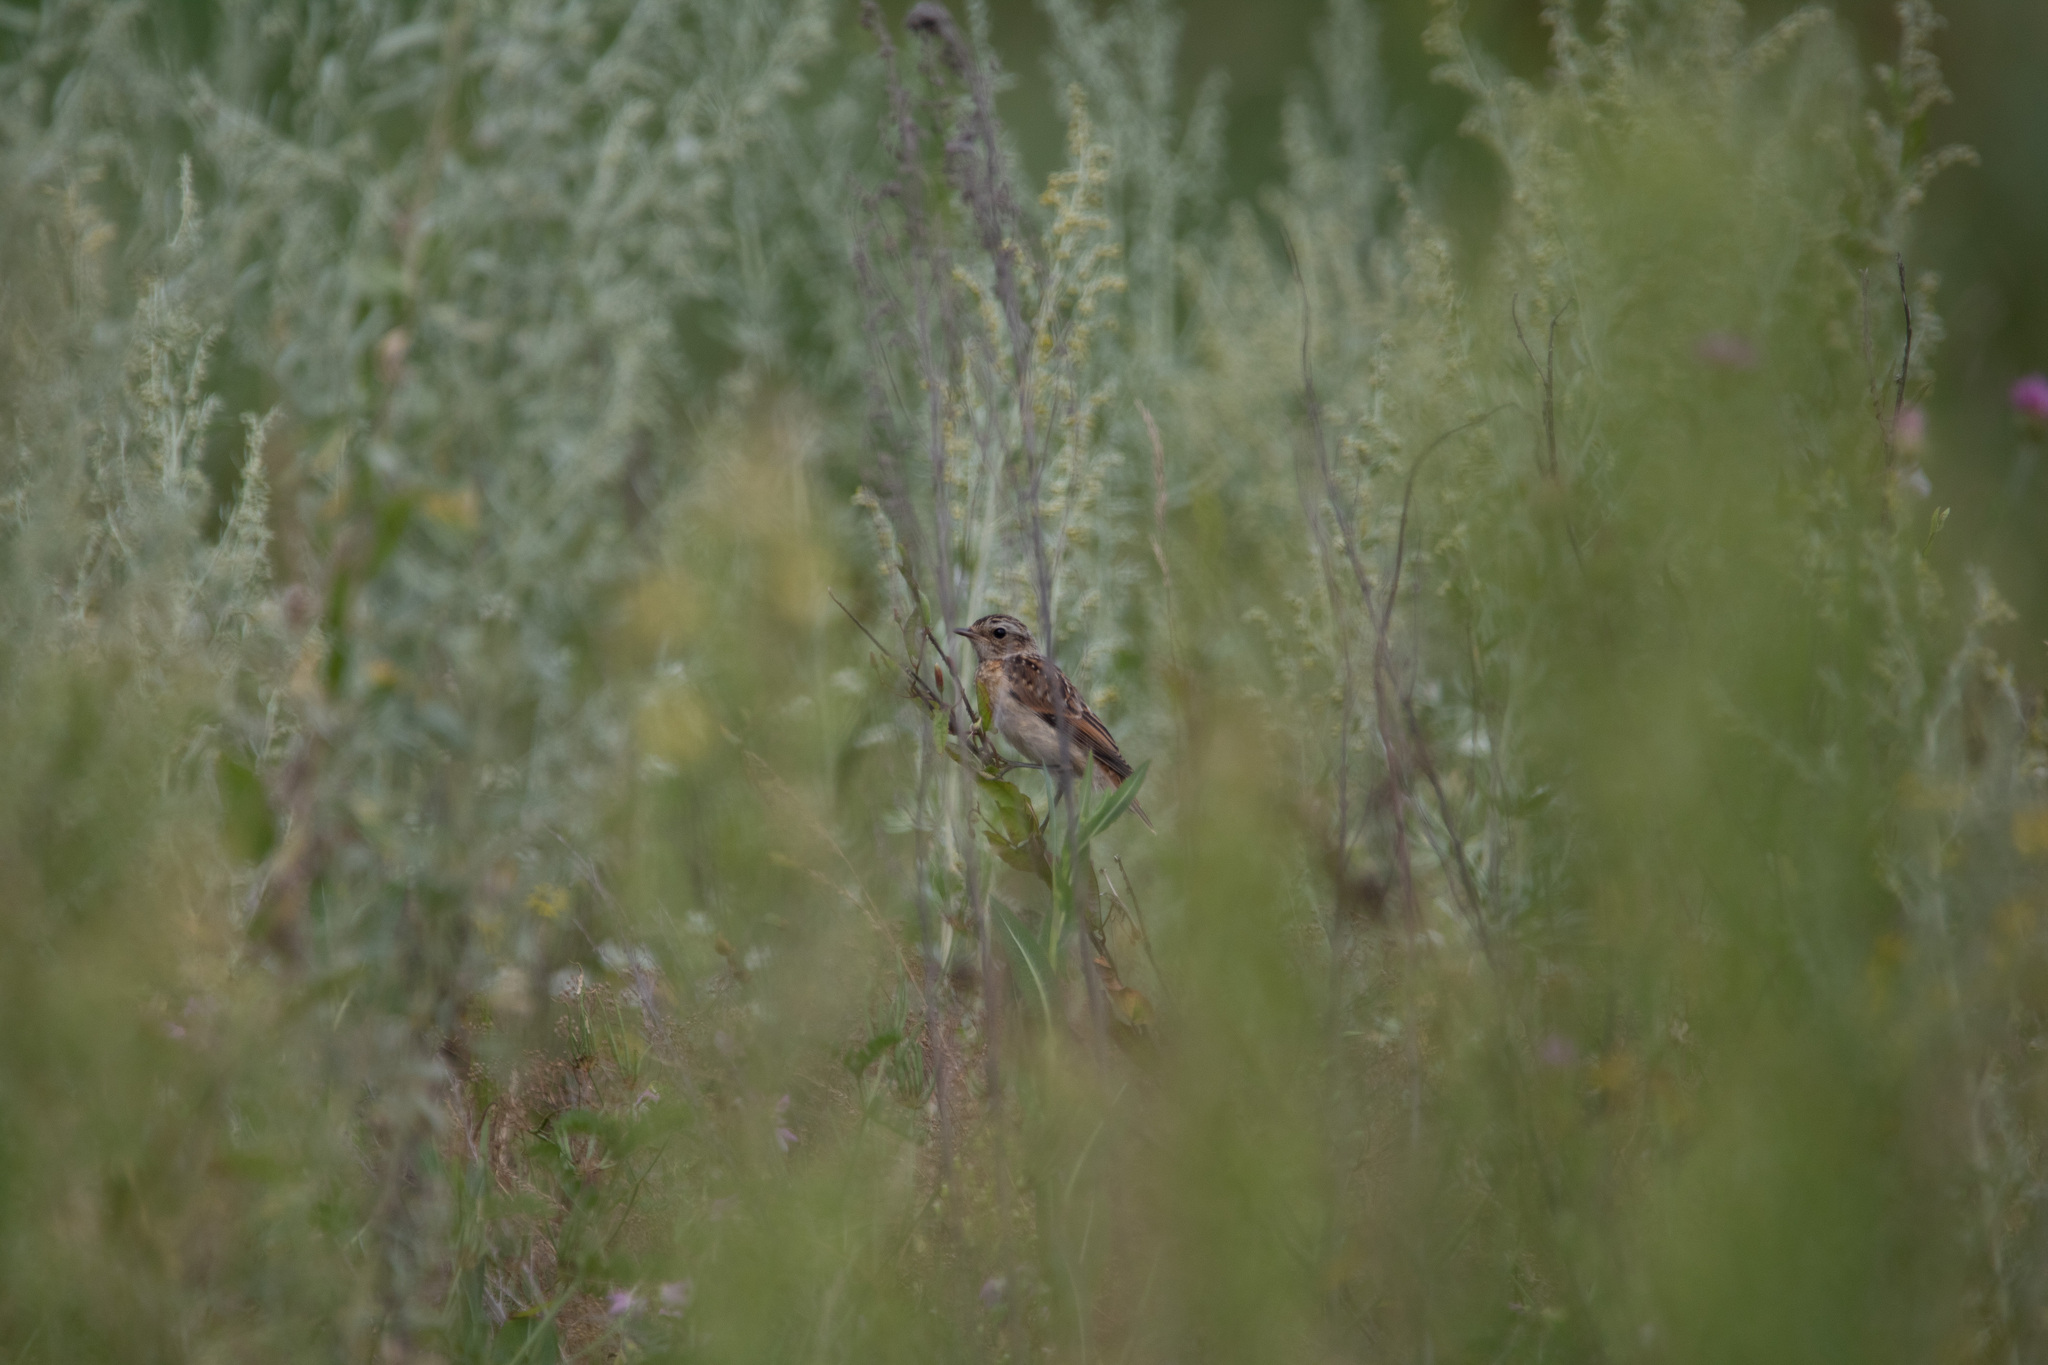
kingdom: Animalia
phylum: Chordata
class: Aves
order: Passeriformes
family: Muscicapidae
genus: Saxicola
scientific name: Saxicola rubetra
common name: Whinchat
